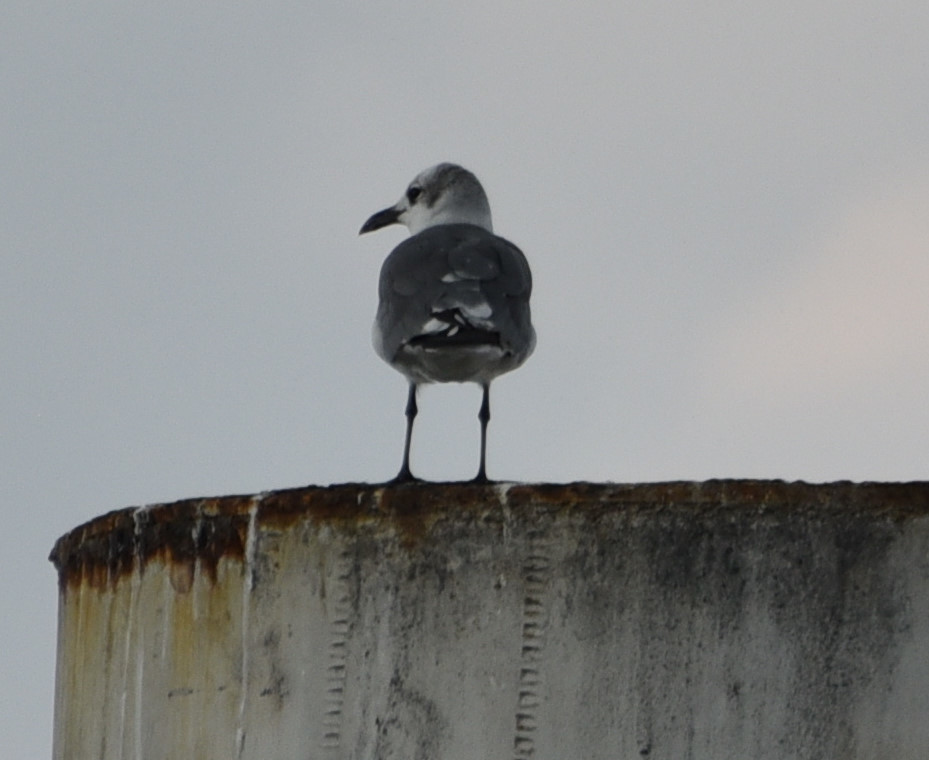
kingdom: Animalia
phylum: Chordata
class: Aves
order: Charadriiformes
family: Laridae
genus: Leucophaeus
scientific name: Leucophaeus atricilla
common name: Laughing gull
